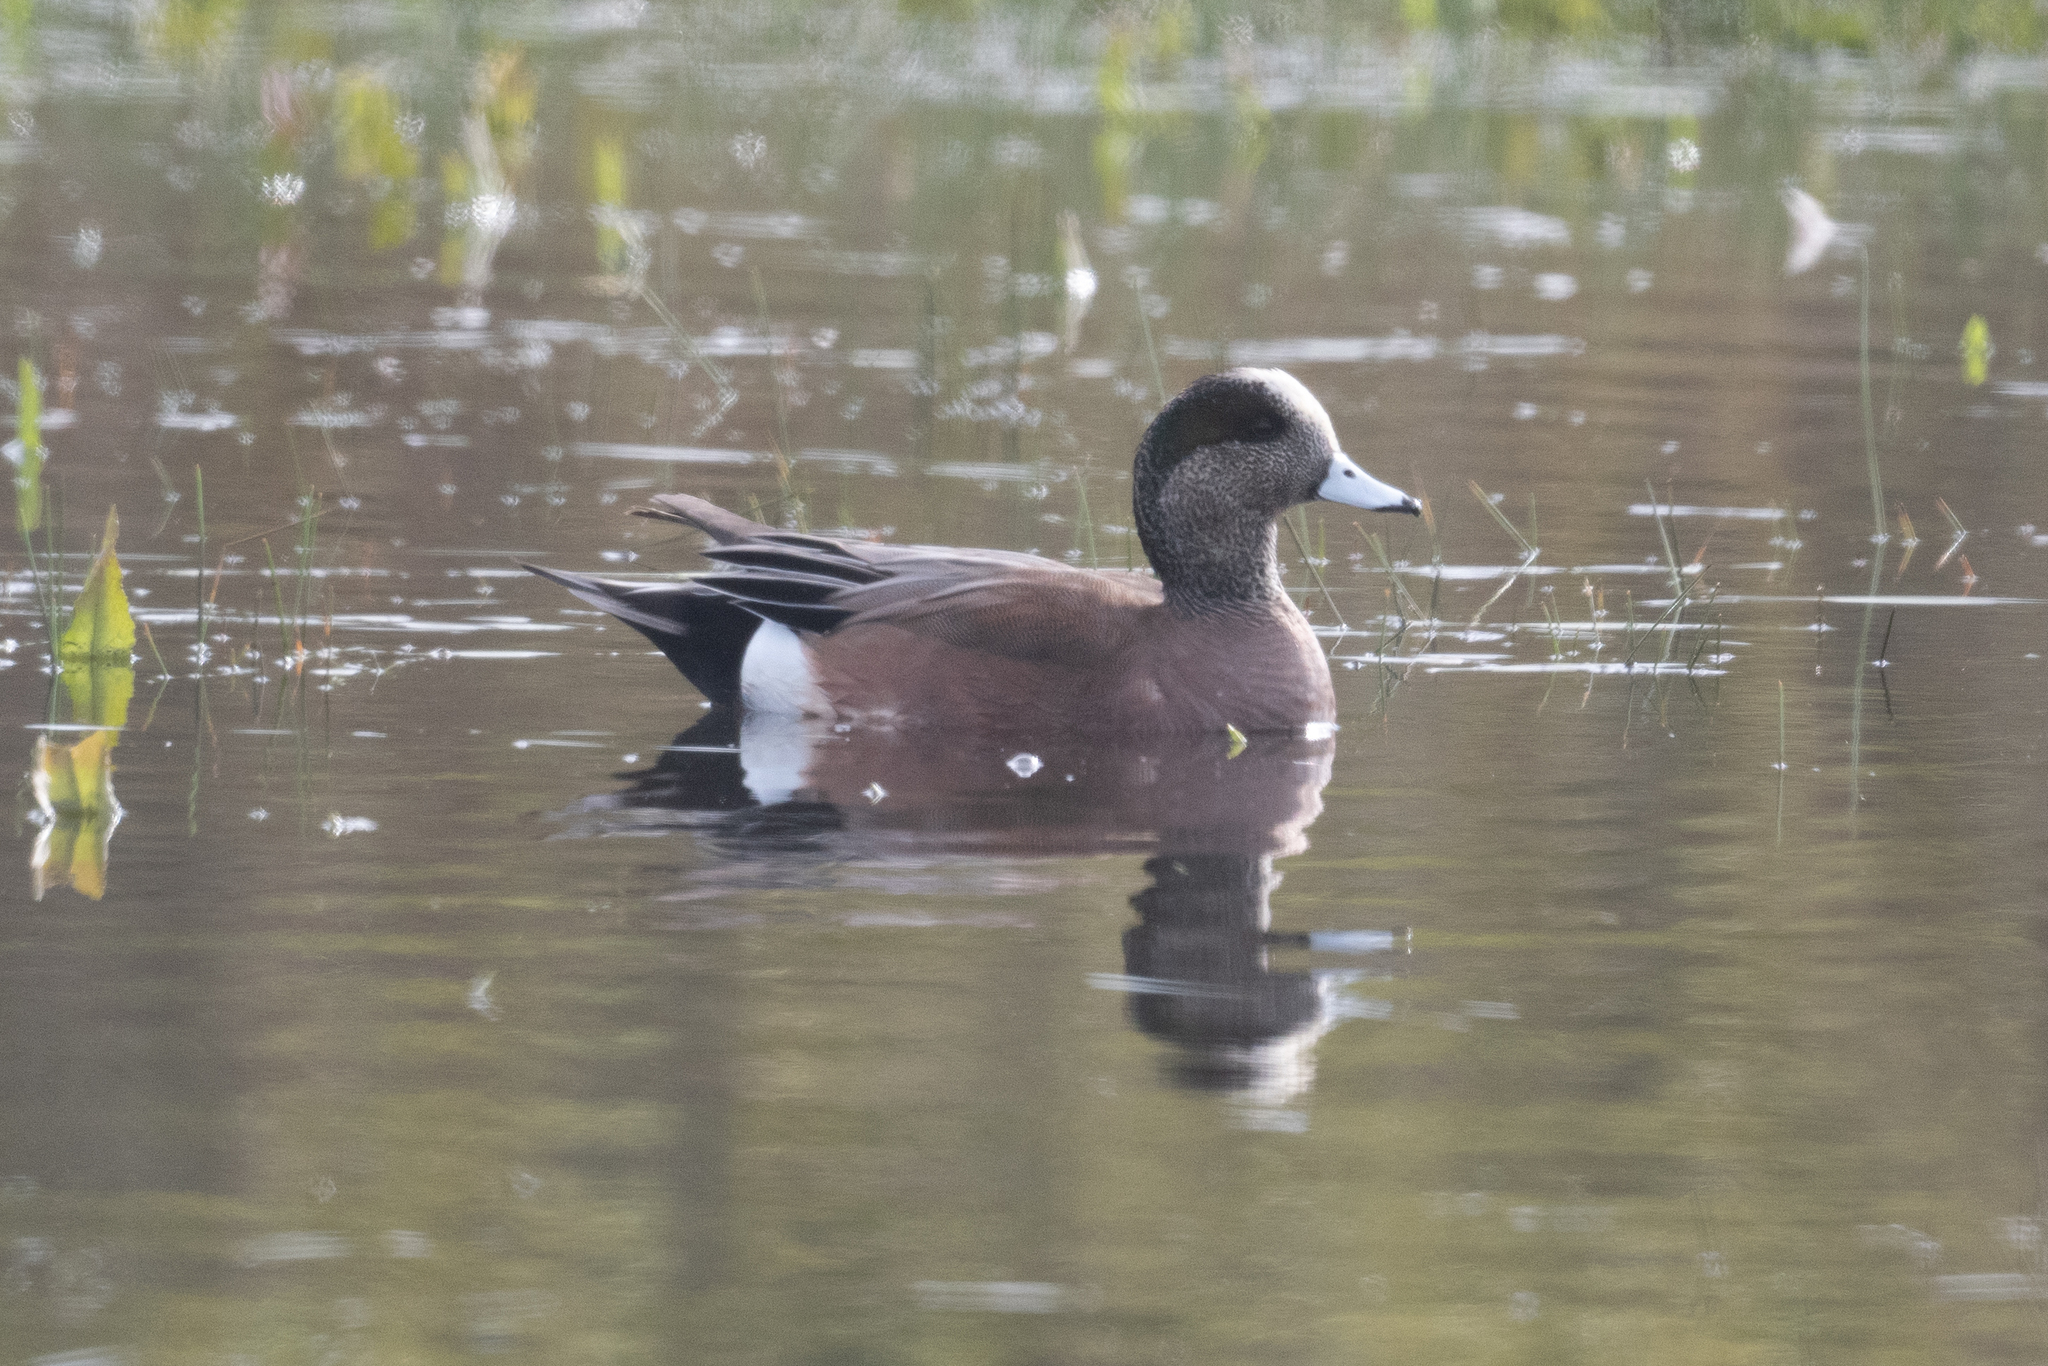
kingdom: Animalia
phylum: Chordata
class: Aves
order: Anseriformes
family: Anatidae
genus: Mareca
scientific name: Mareca americana
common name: American wigeon
